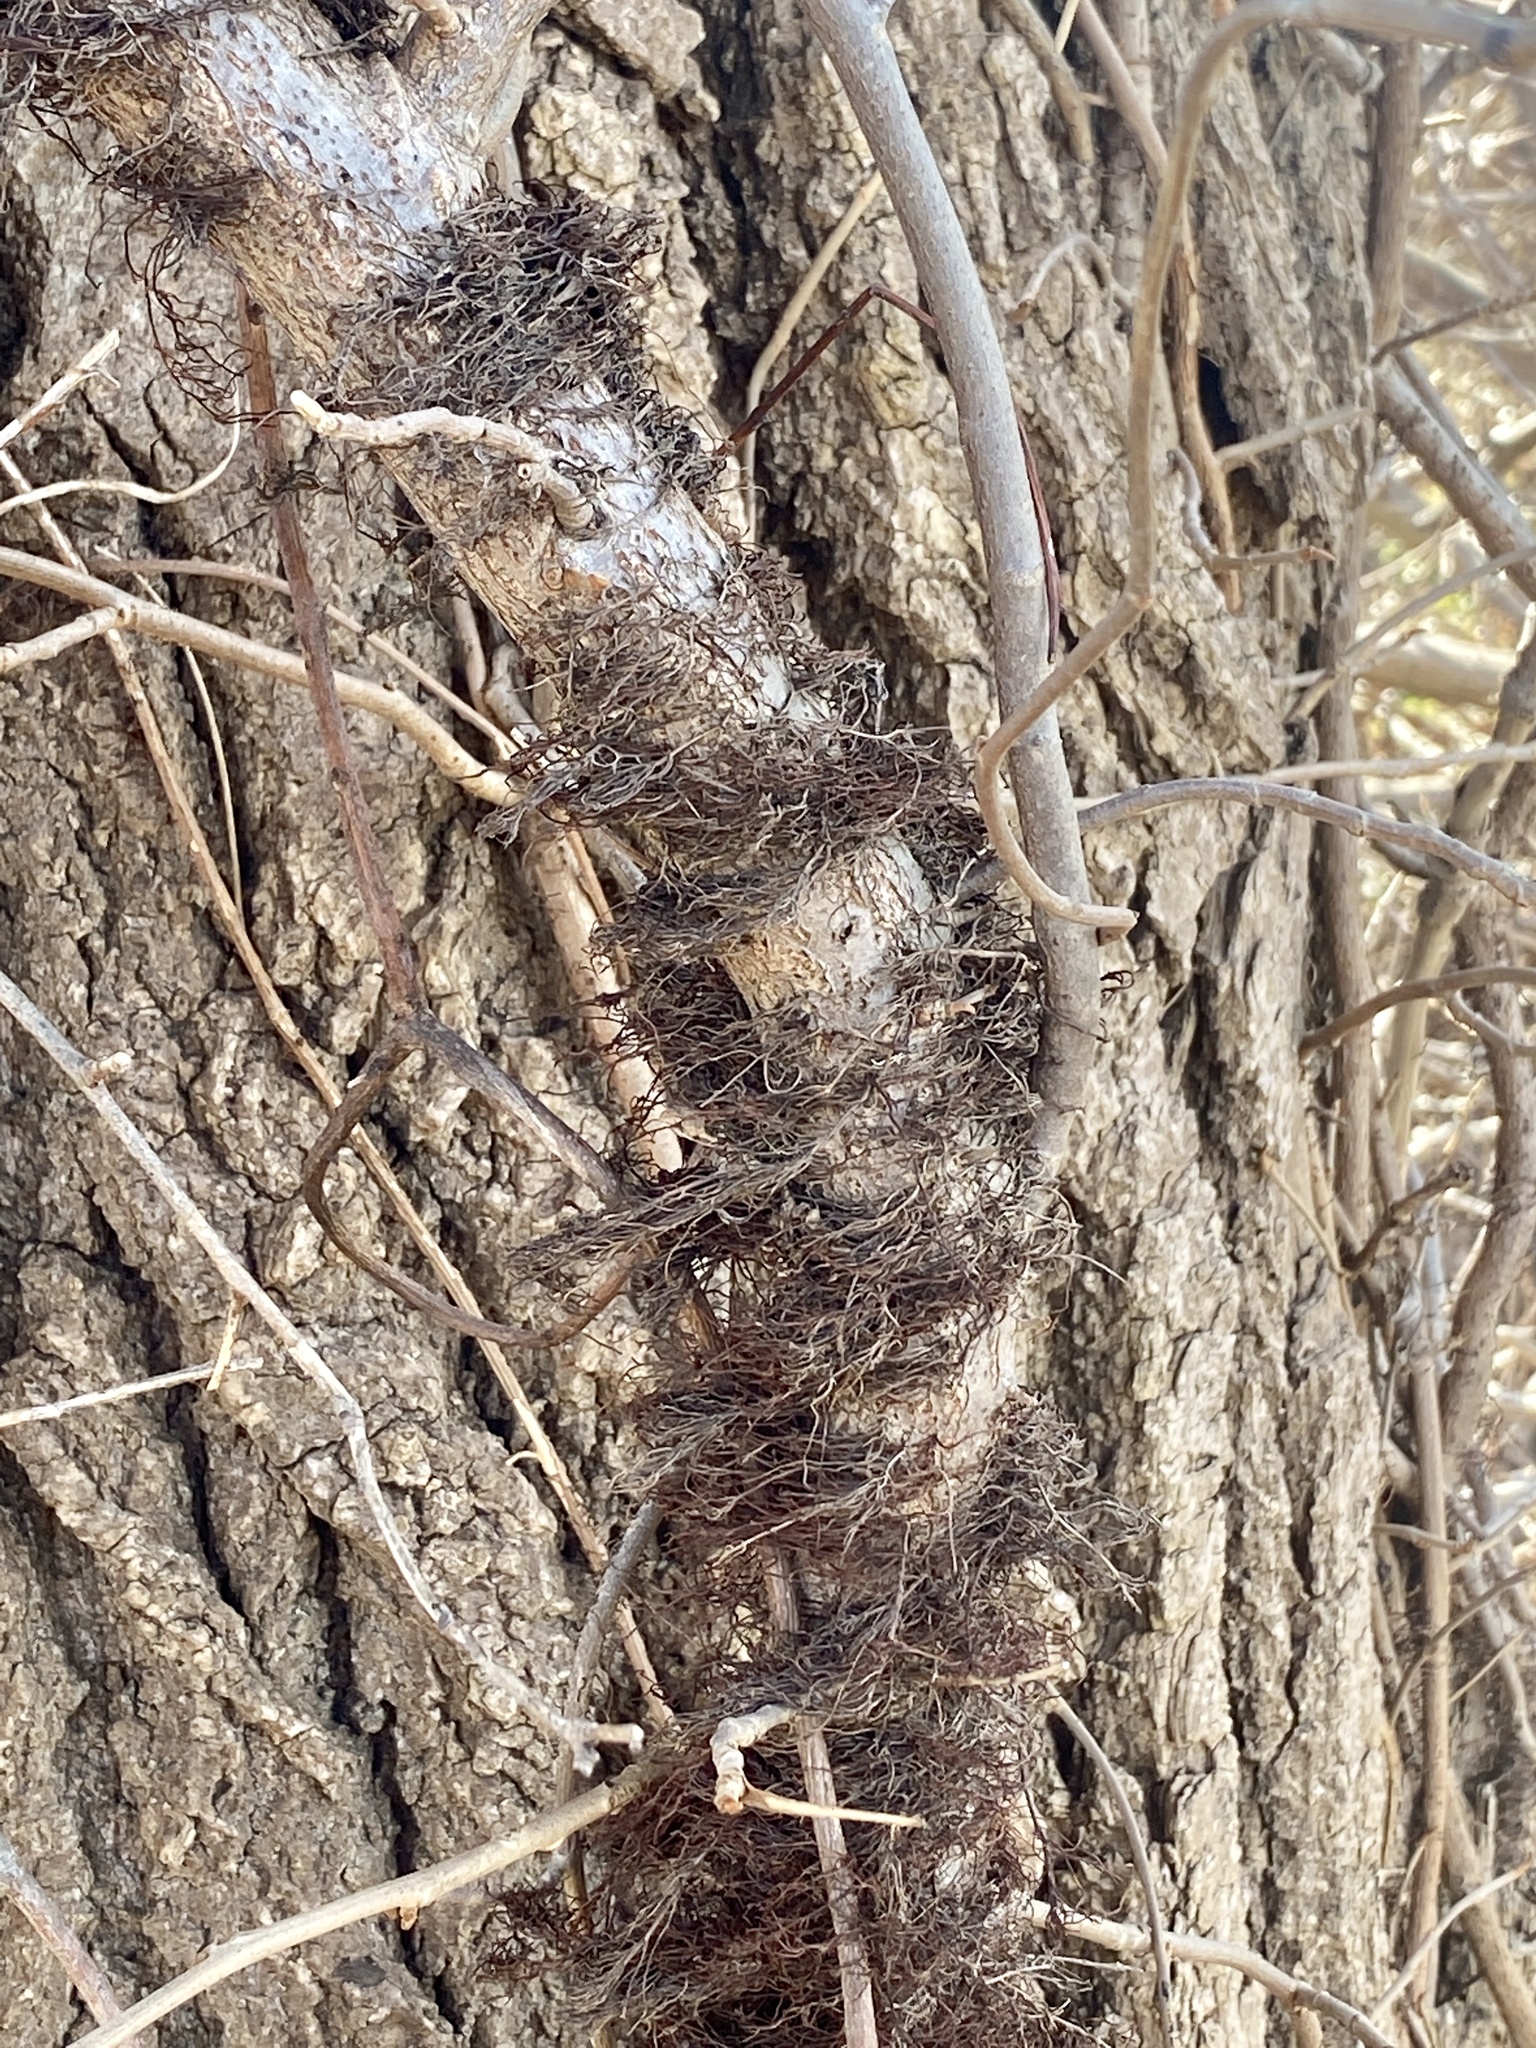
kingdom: Plantae
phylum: Tracheophyta
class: Magnoliopsida
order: Sapindales
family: Anacardiaceae
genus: Toxicodendron
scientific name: Toxicodendron radicans
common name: Poison ivy
